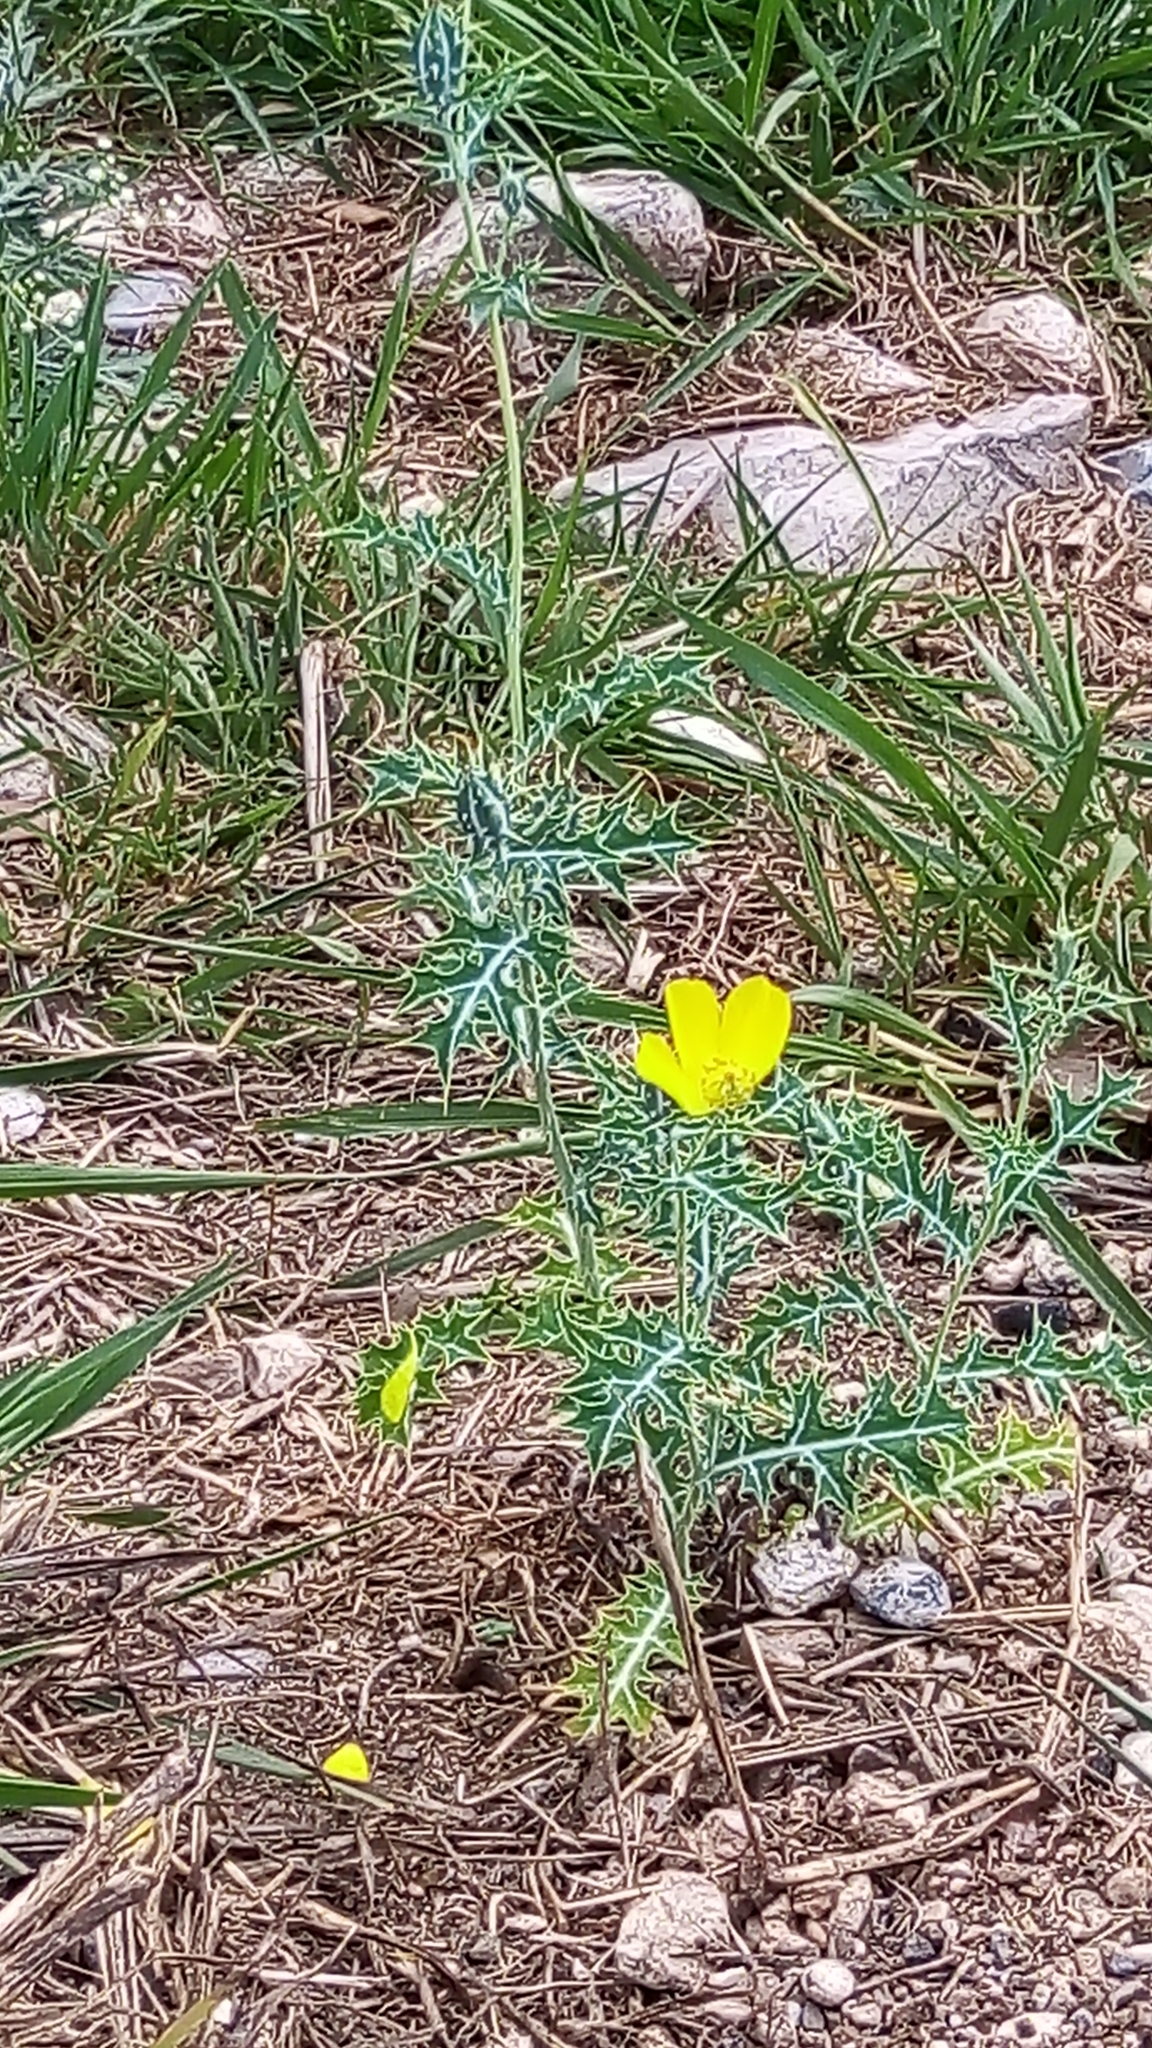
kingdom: Plantae
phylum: Tracheophyta
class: Magnoliopsida
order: Ranunculales
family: Papaveraceae
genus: Argemone
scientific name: Argemone mexicana
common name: Mexican poppy
